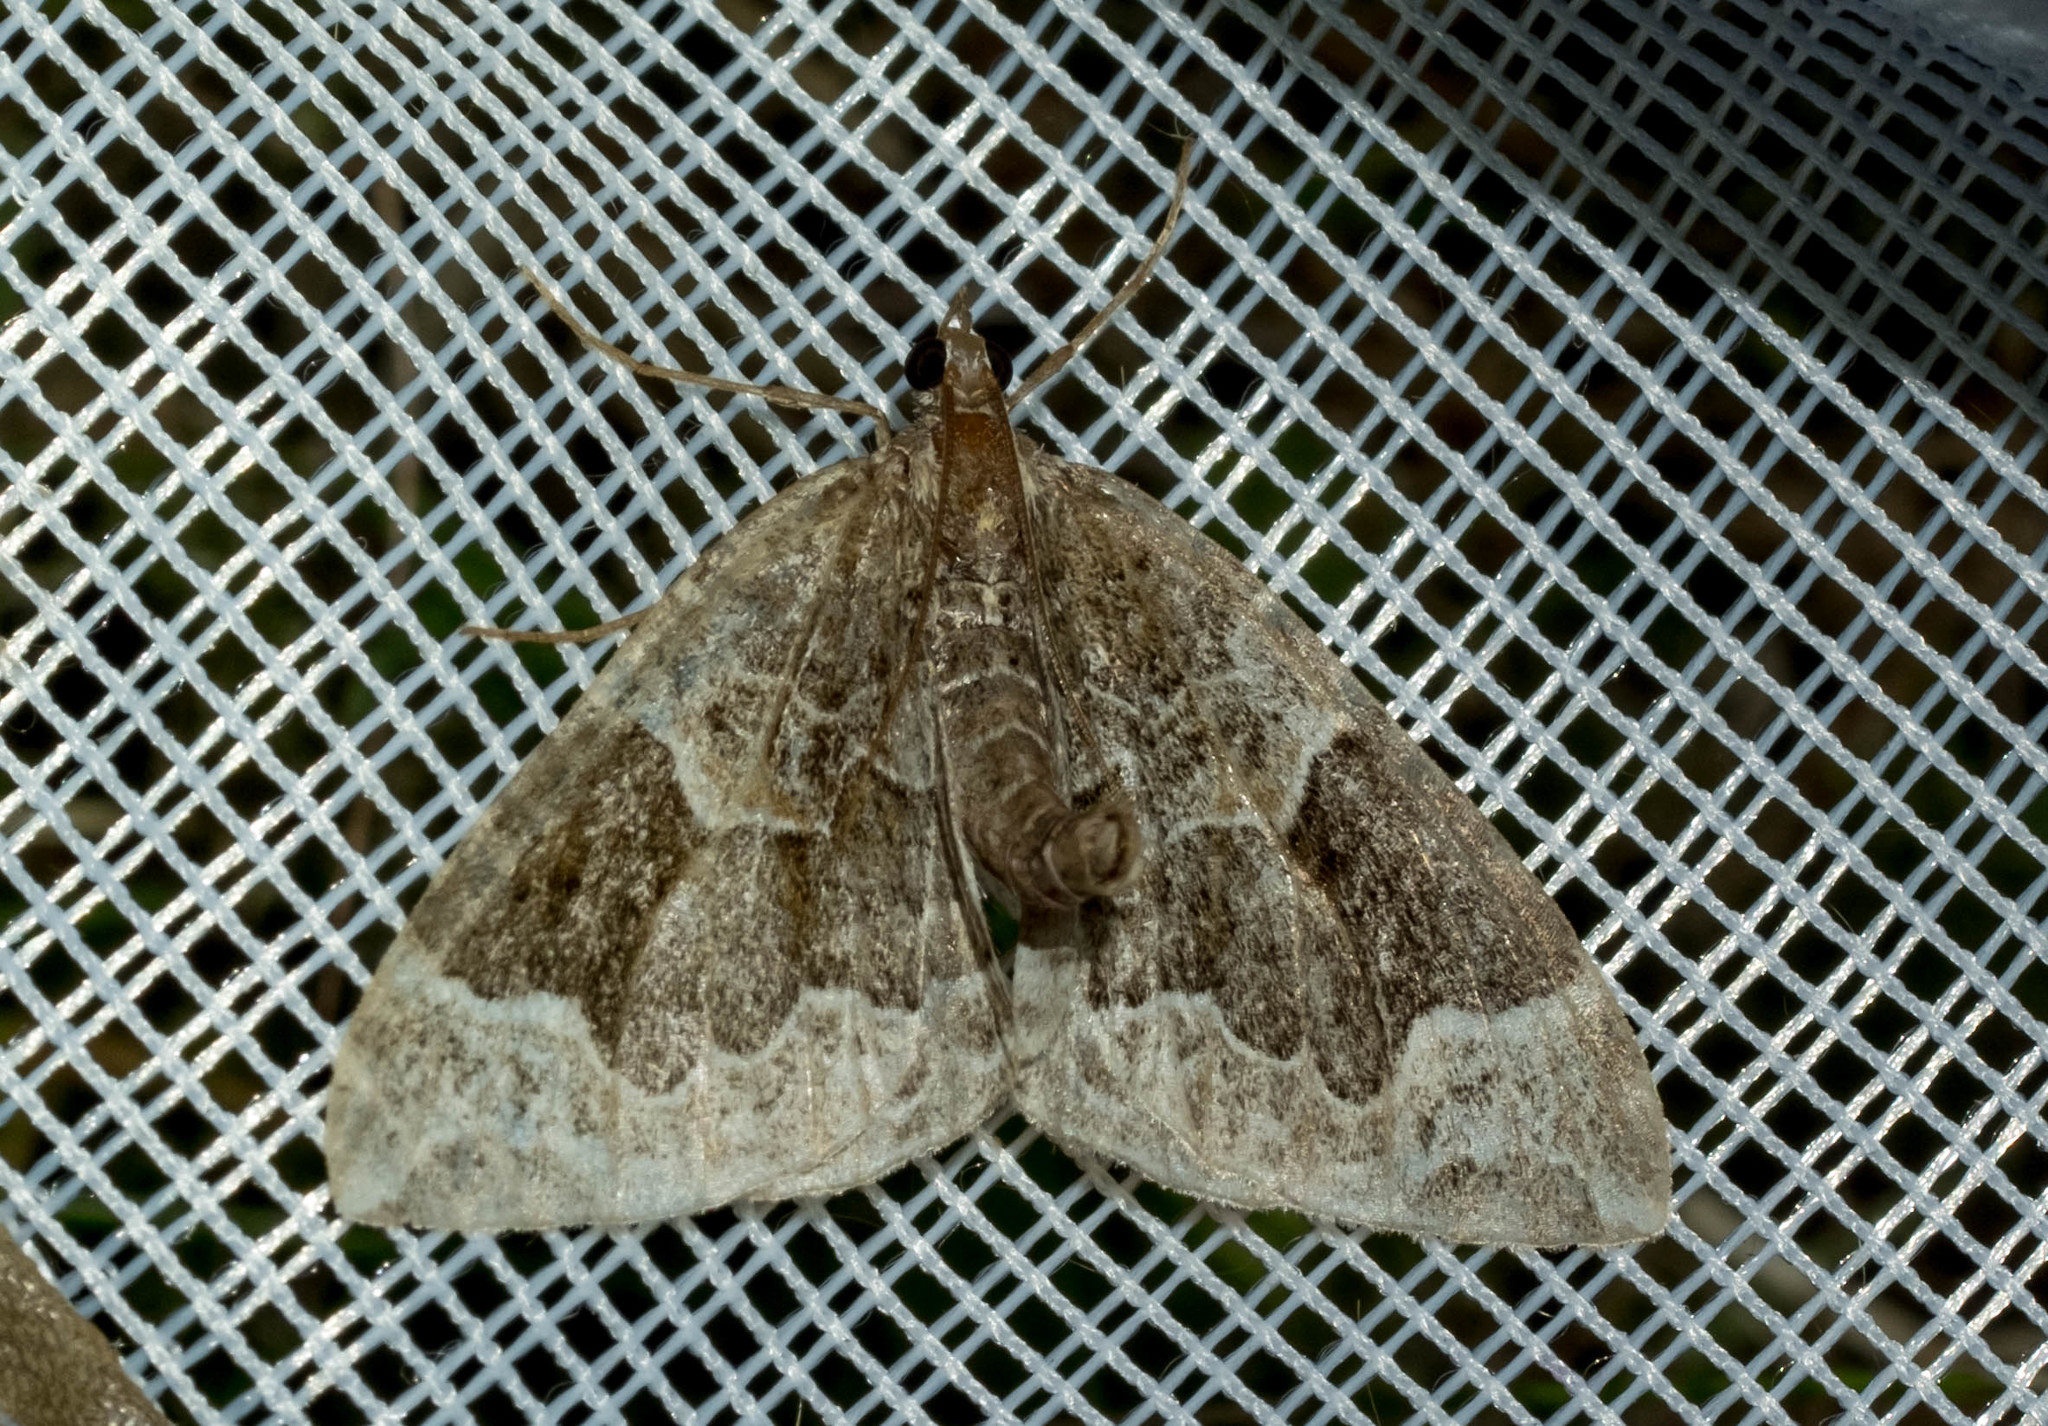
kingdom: Animalia
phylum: Arthropoda
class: Insecta
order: Lepidoptera
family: Geometridae
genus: Eulithis
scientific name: Eulithis prunata
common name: Phoenix
